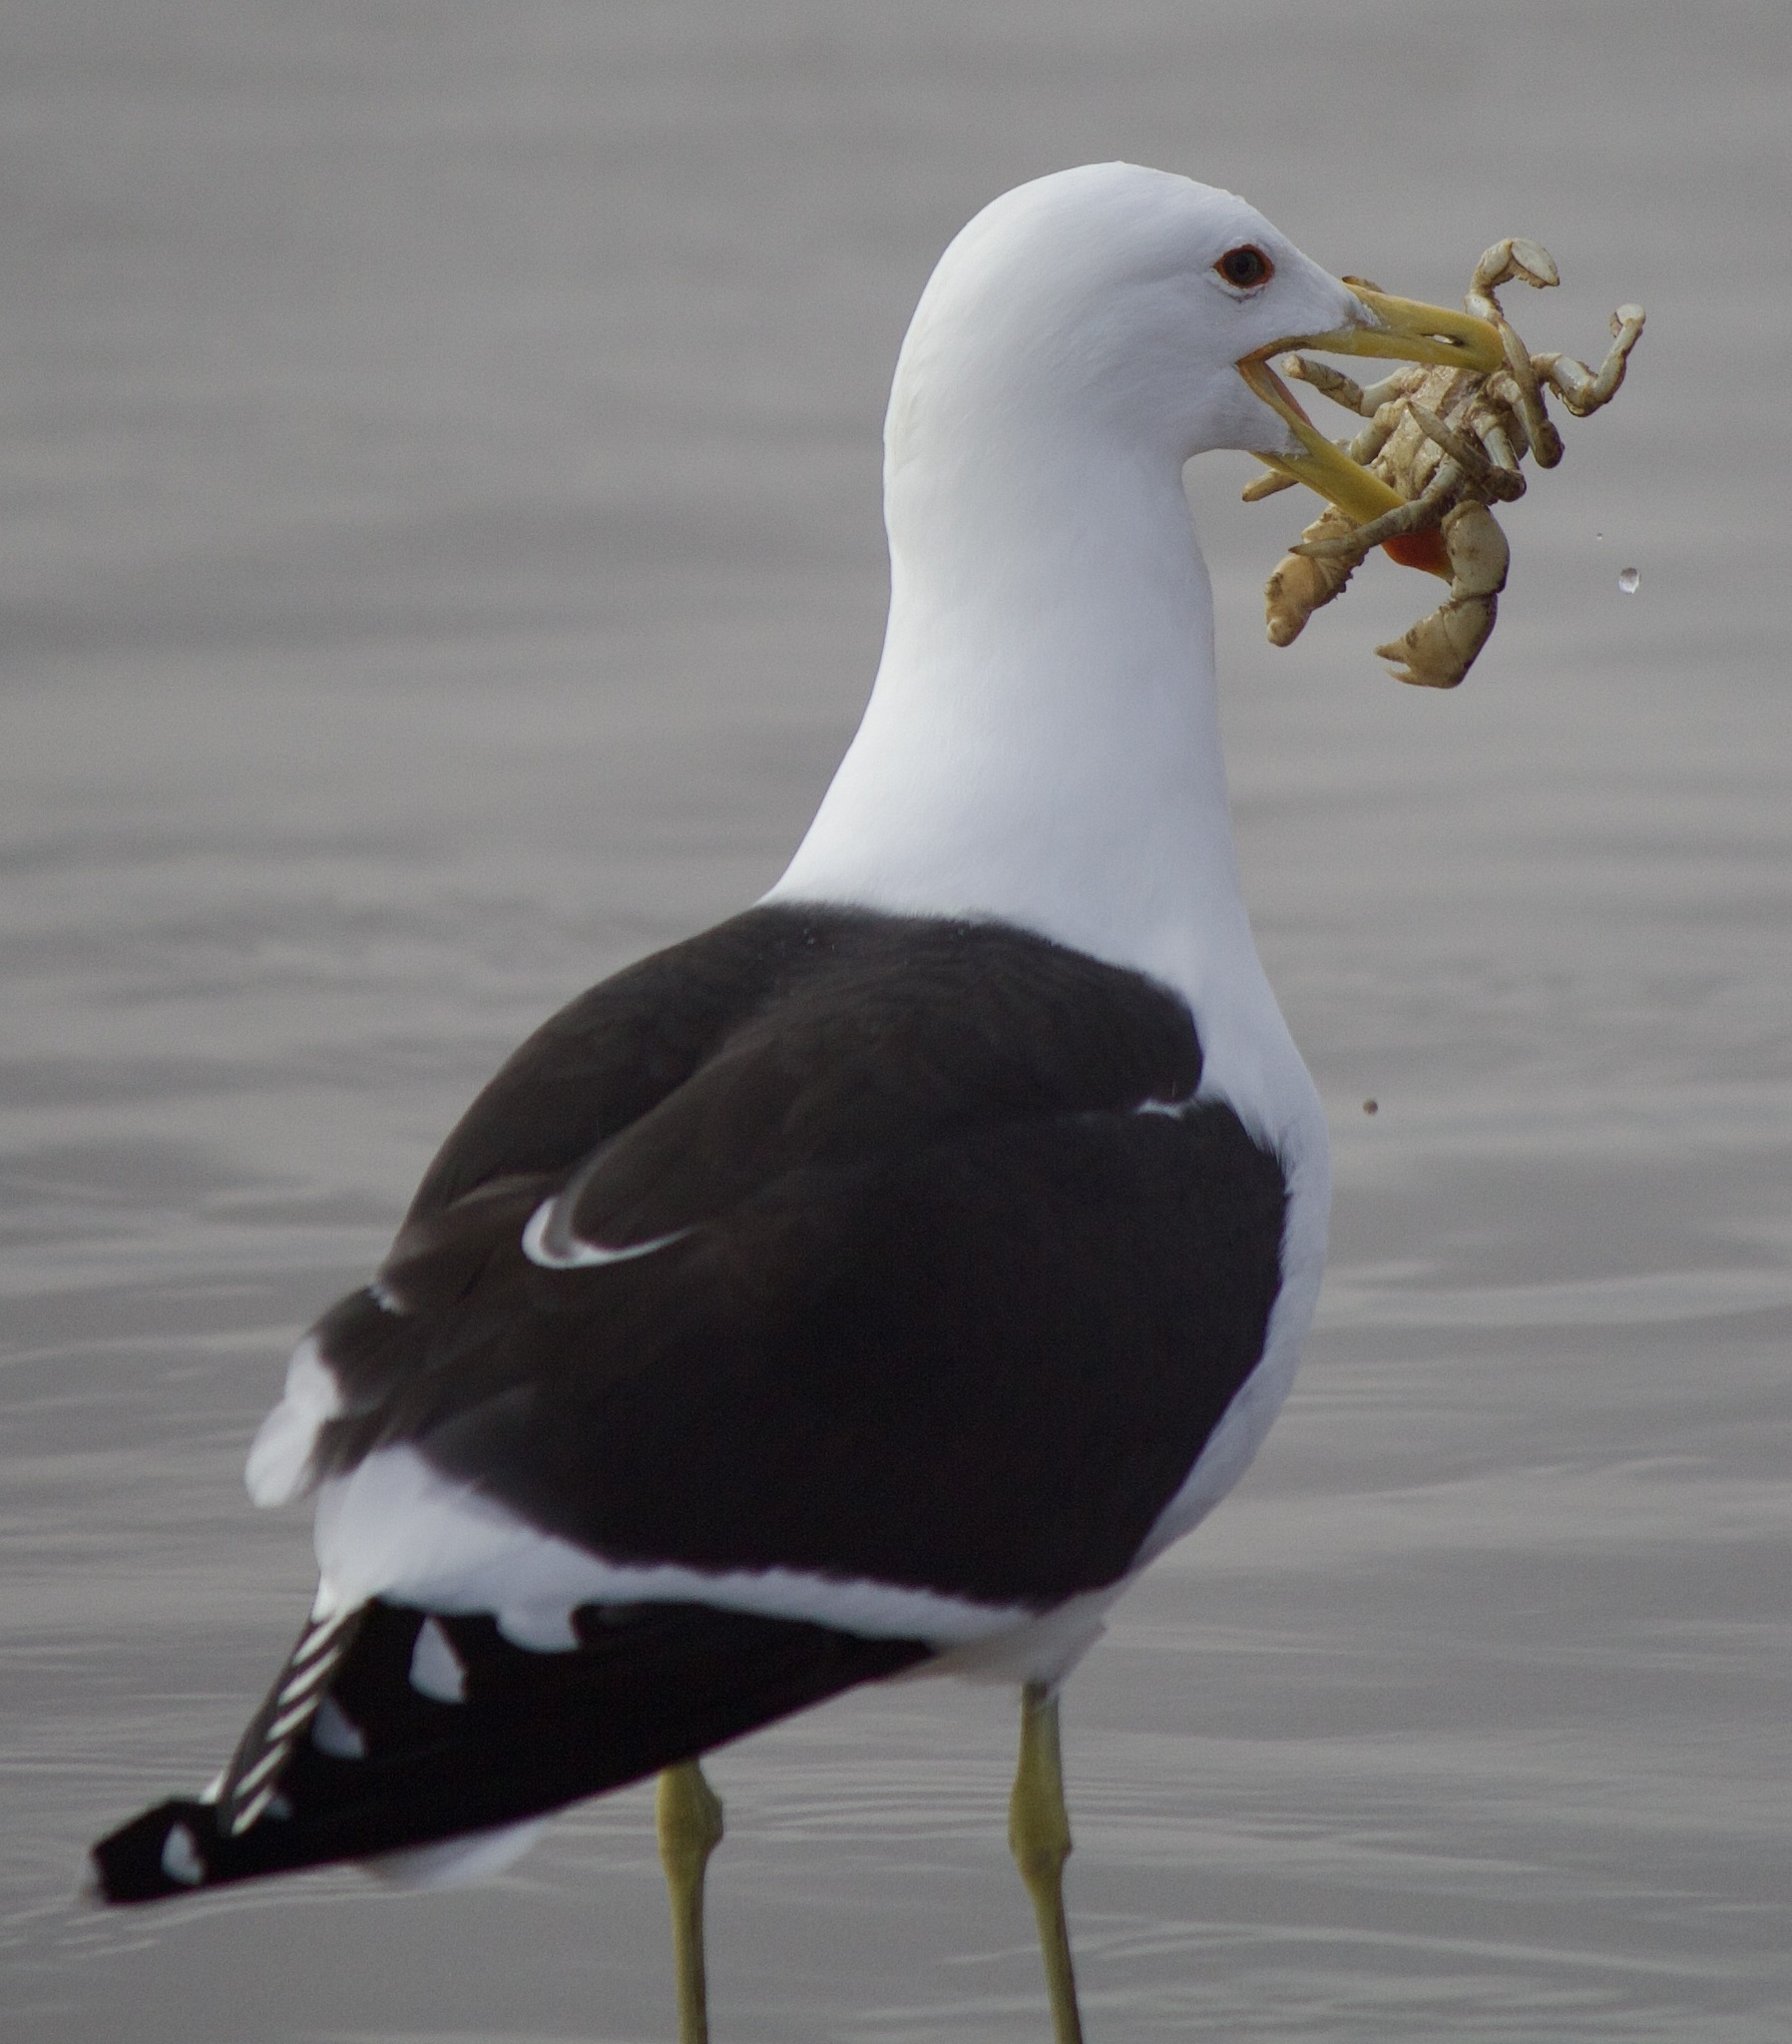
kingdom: Animalia
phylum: Chordata
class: Aves
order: Charadriiformes
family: Laridae
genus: Larus
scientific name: Larus dominicanus
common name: Kelp gull
